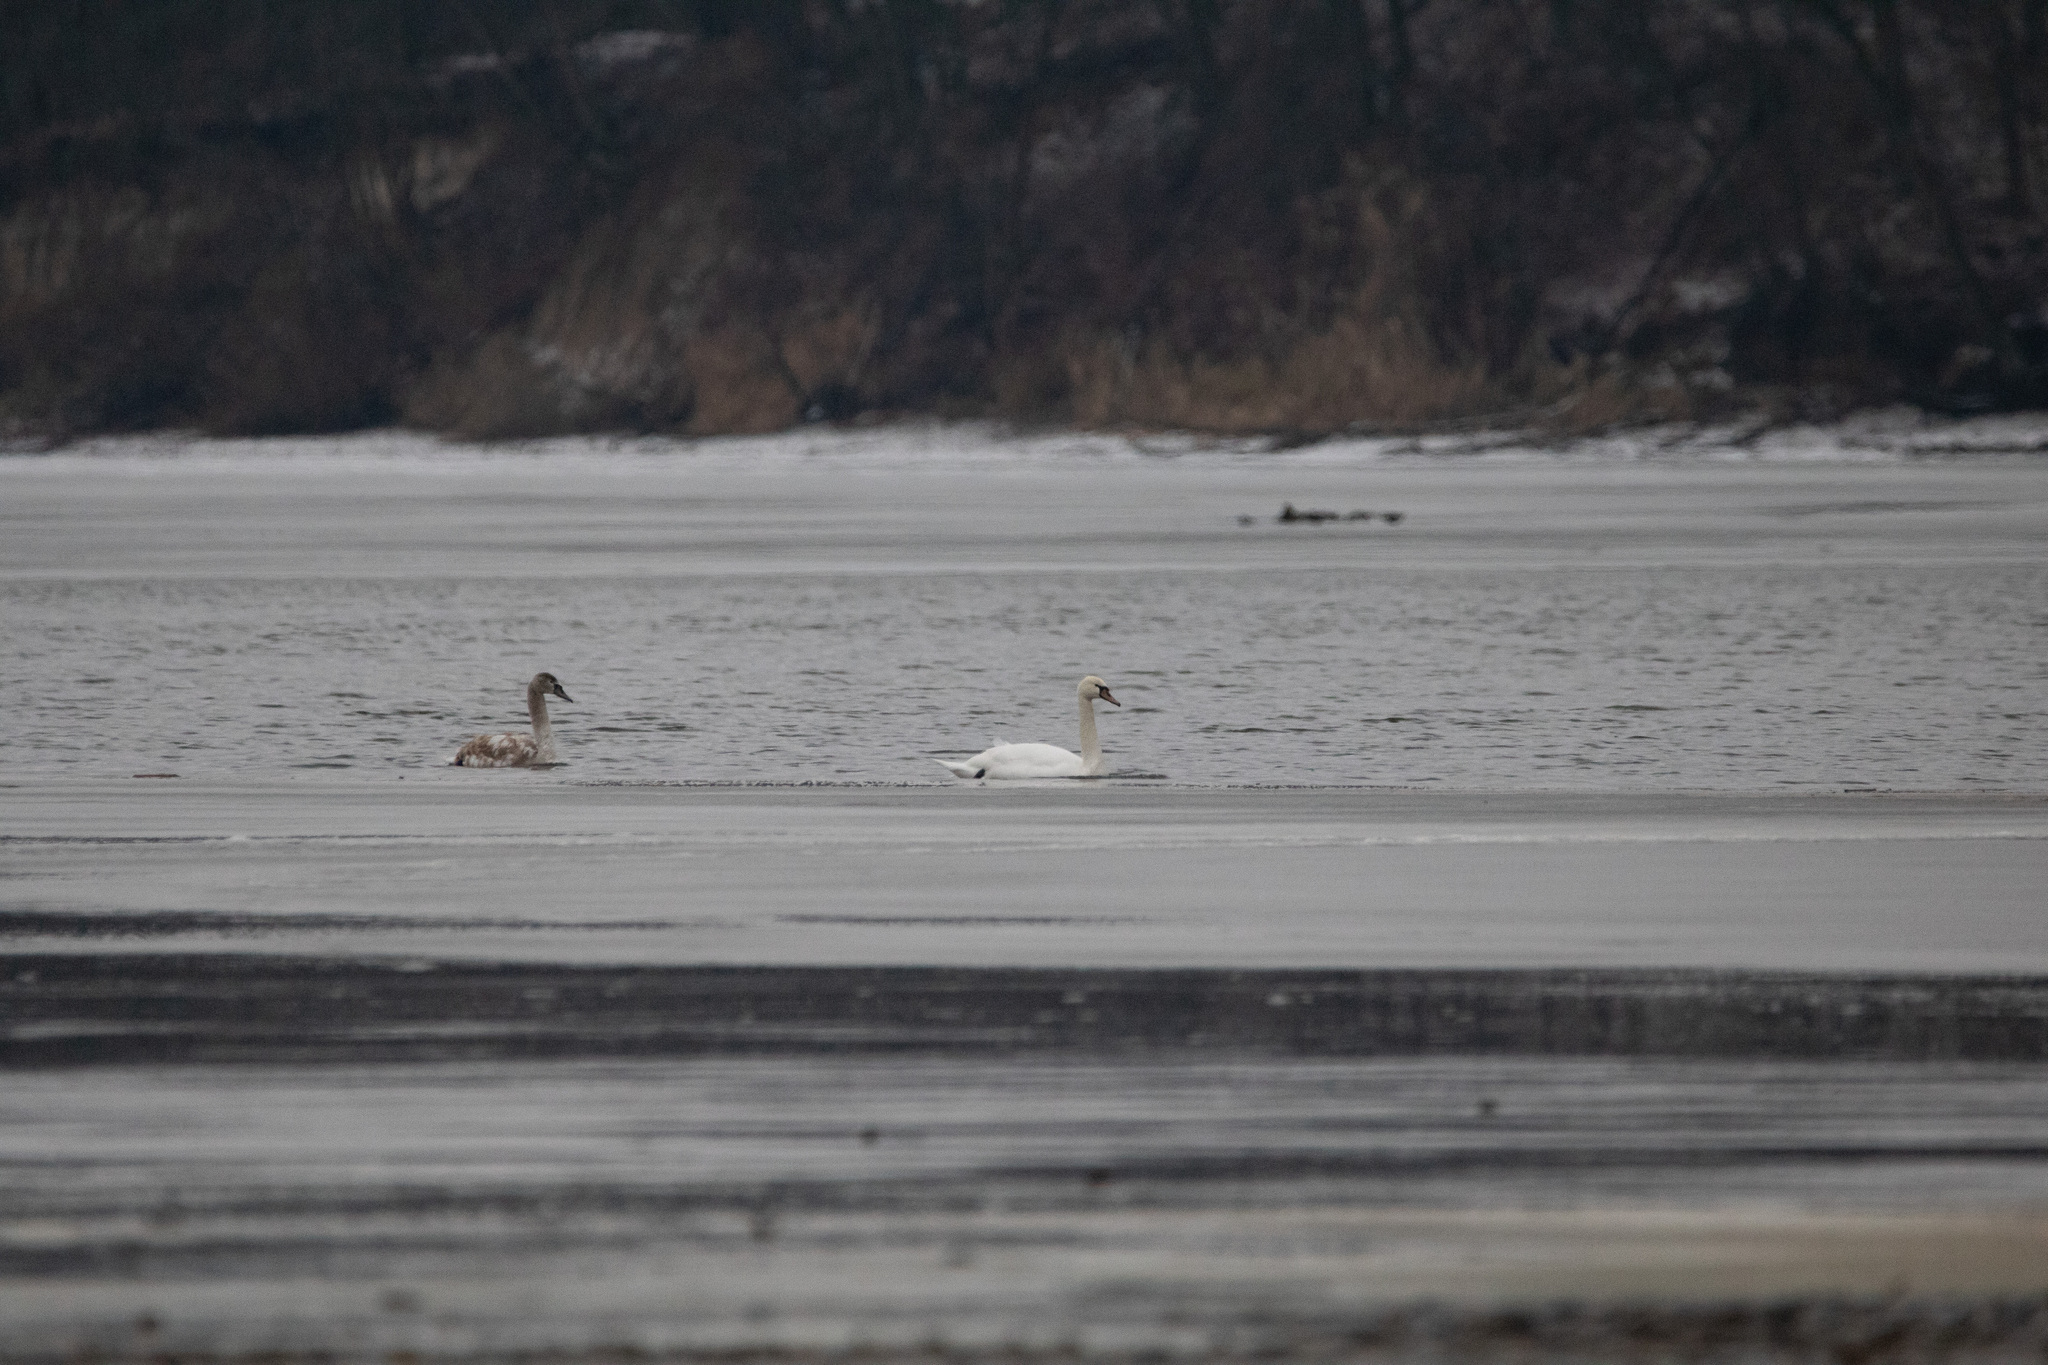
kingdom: Animalia
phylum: Chordata
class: Aves
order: Anseriformes
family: Anatidae
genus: Cygnus
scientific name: Cygnus olor
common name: Mute swan
